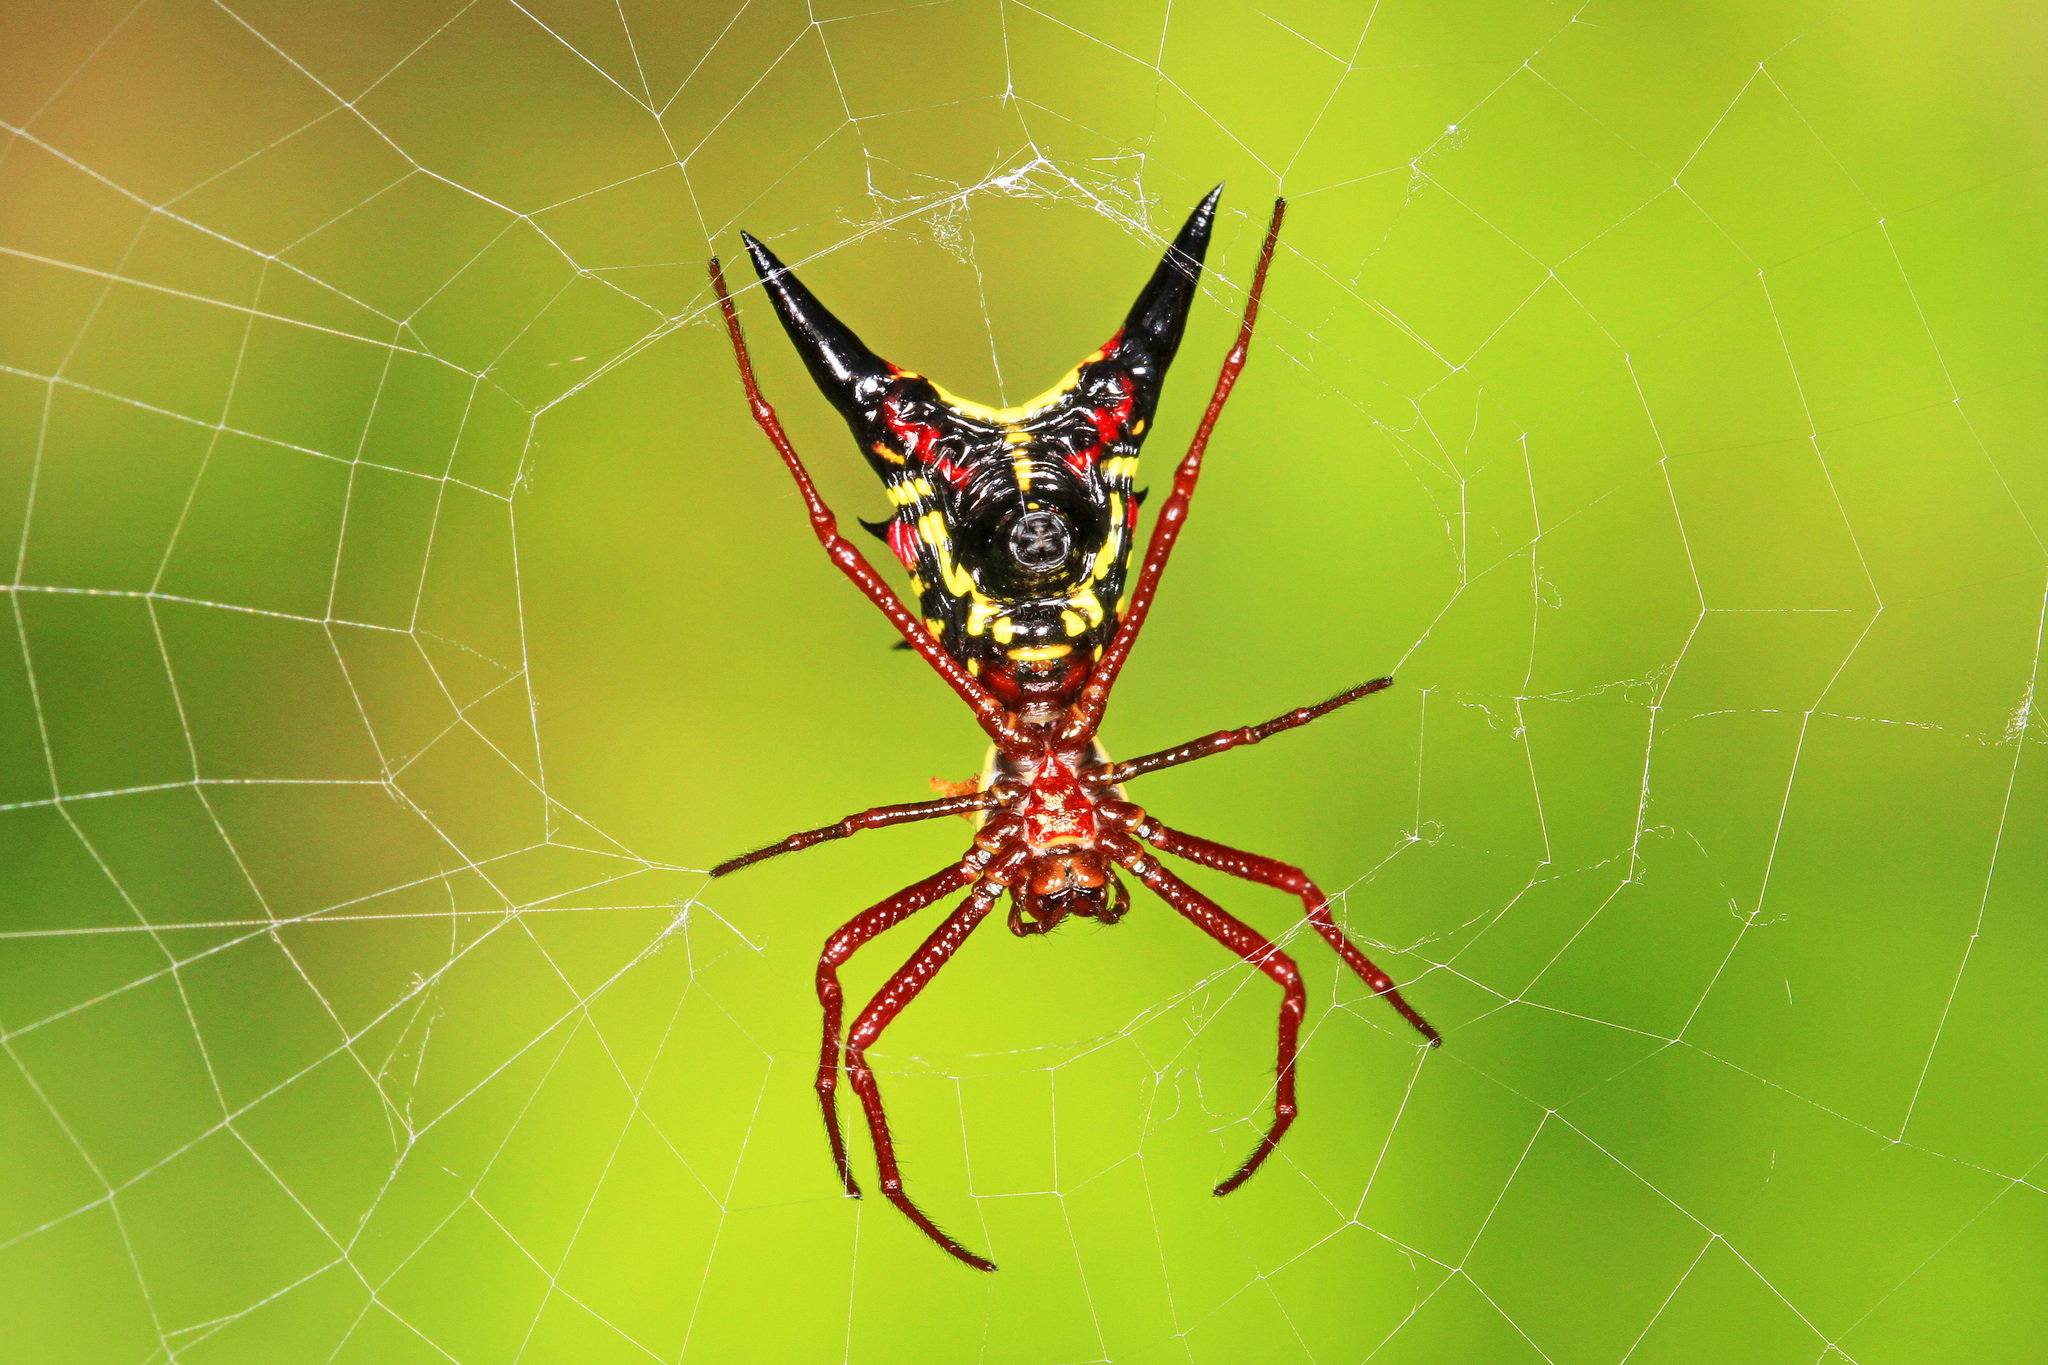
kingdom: Animalia
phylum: Arthropoda
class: Arachnida
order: Araneae
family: Araneidae
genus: Micrathena
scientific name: Micrathena sagittata
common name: Orb weavers
